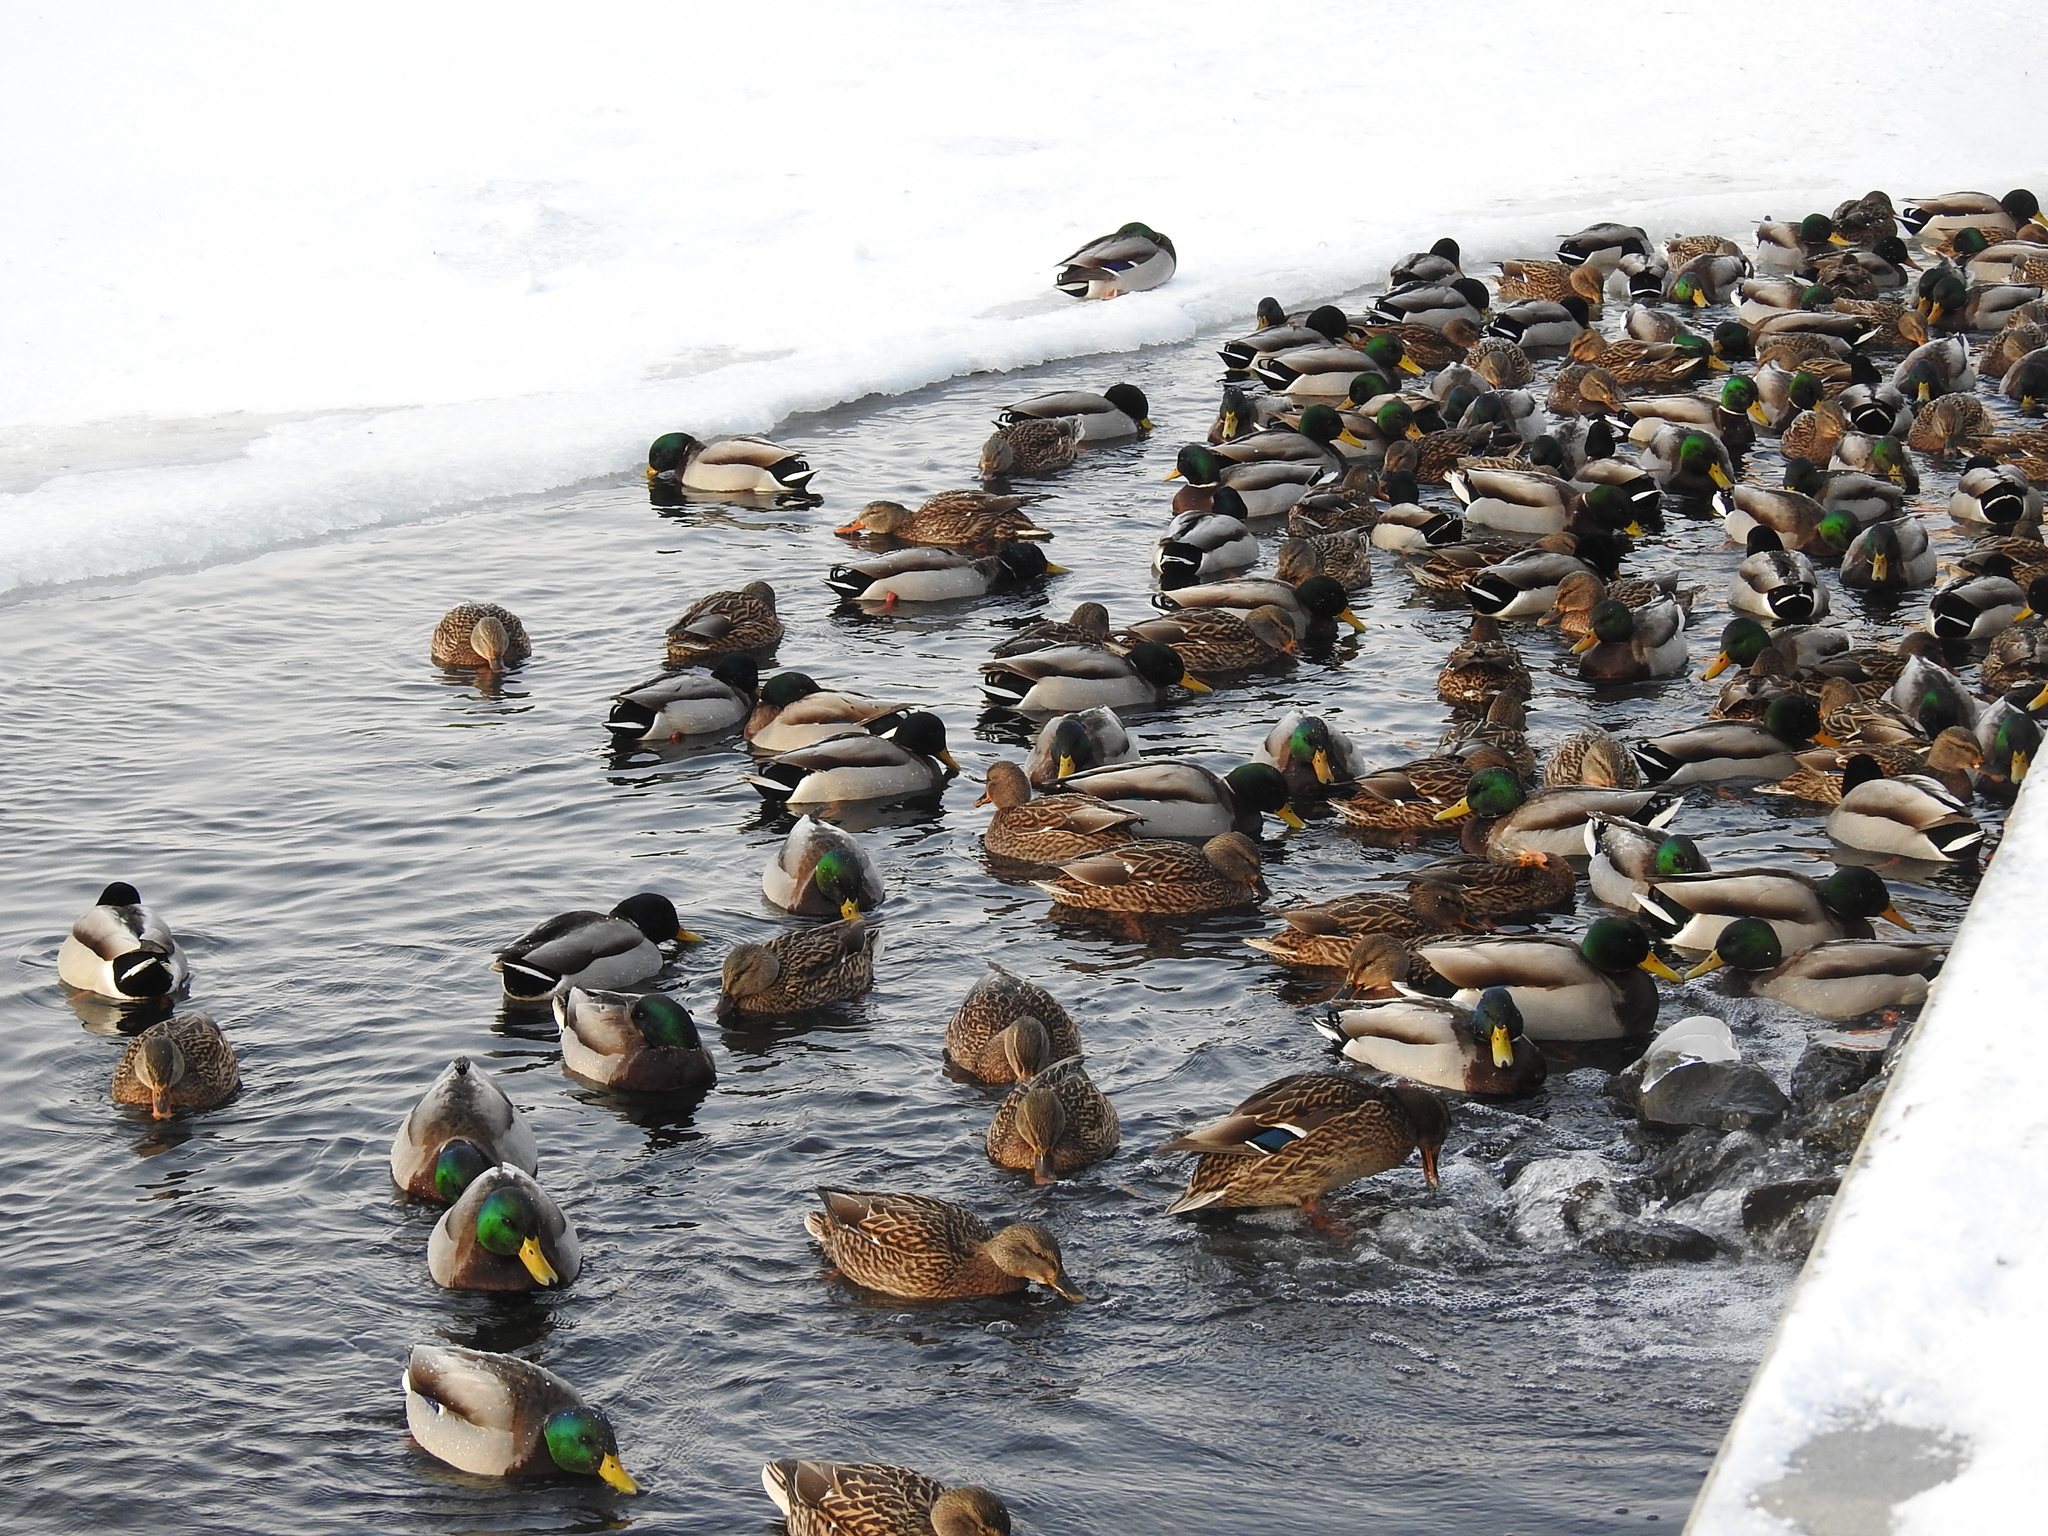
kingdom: Animalia
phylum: Chordata
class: Aves
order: Anseriformes
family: Anatidae
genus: Anas
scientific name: Anas platyrhynchos
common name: Mallard
